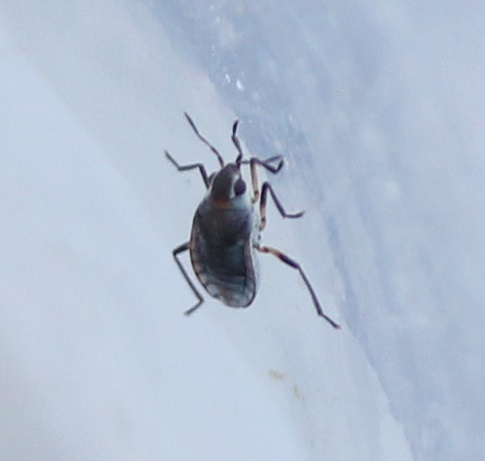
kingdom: Animalia
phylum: Arthropoda
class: Insecta
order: Hemiptera
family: Veliidae
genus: Microvelia
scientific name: Microvelia pulchella
